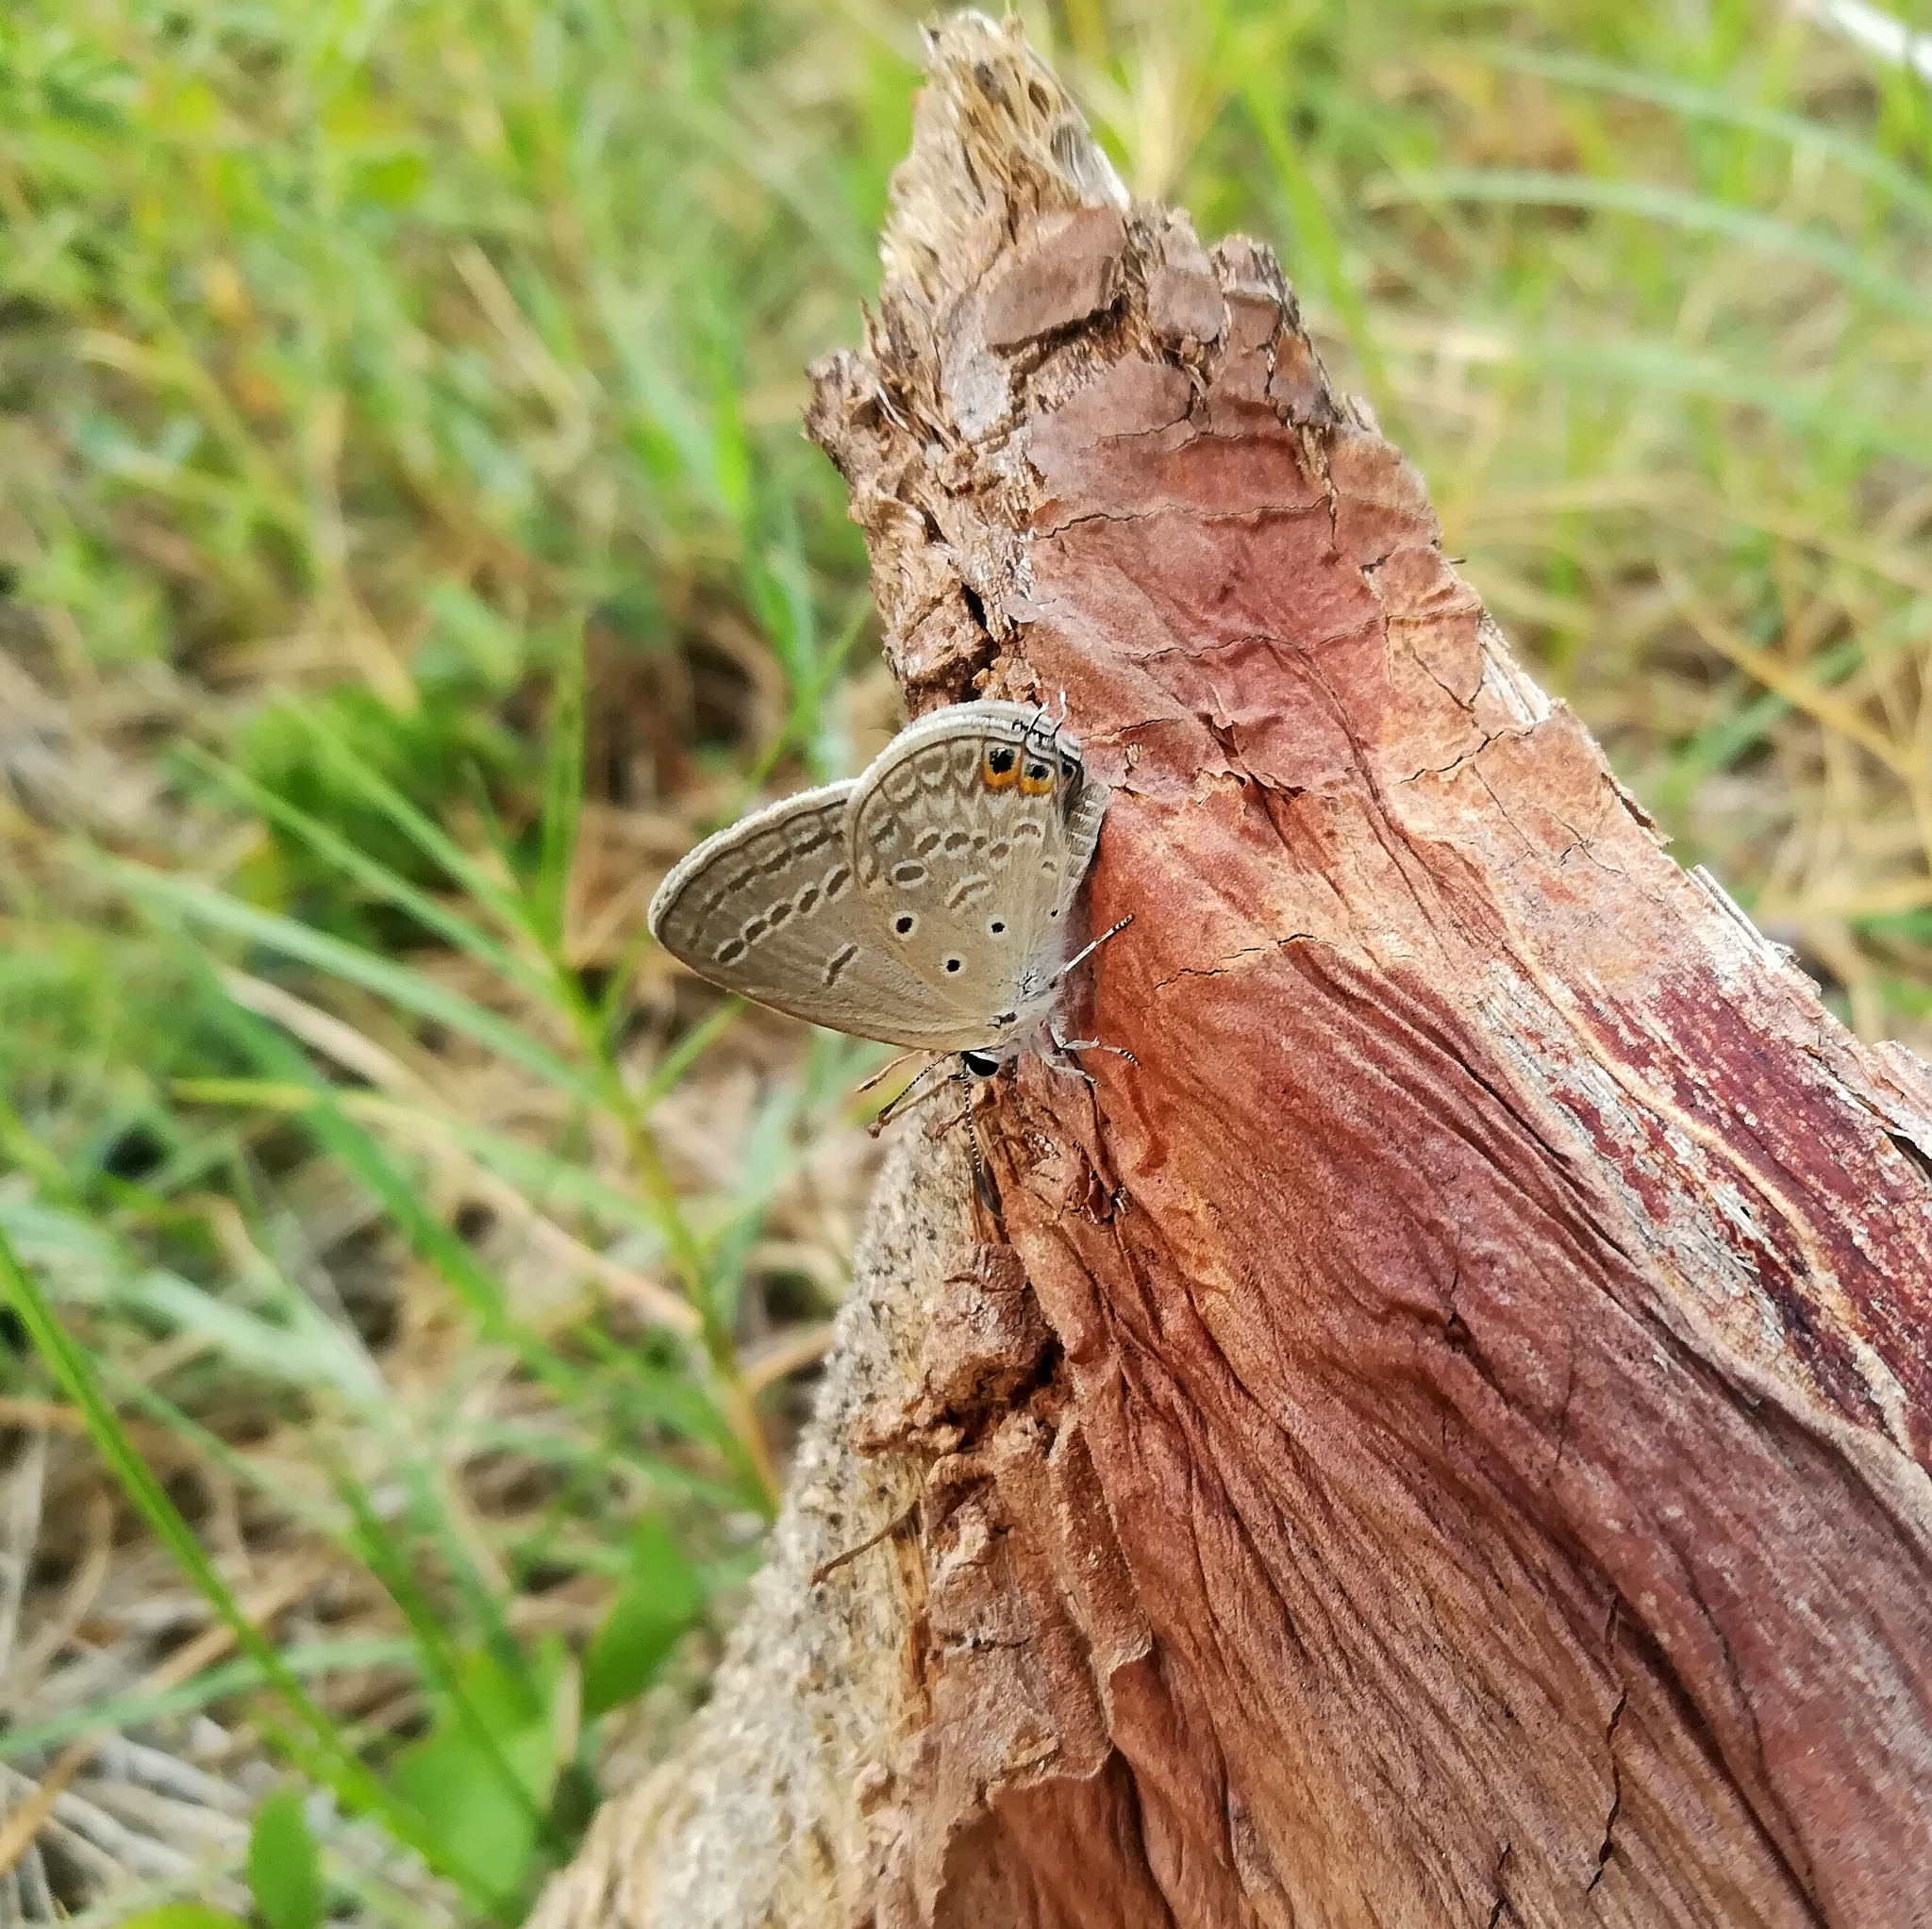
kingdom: Animalia
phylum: Arthropoda
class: Insecta
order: Lepidoptera
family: Lycaenidae
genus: Euchrysops
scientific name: Euchrysops cnejus
